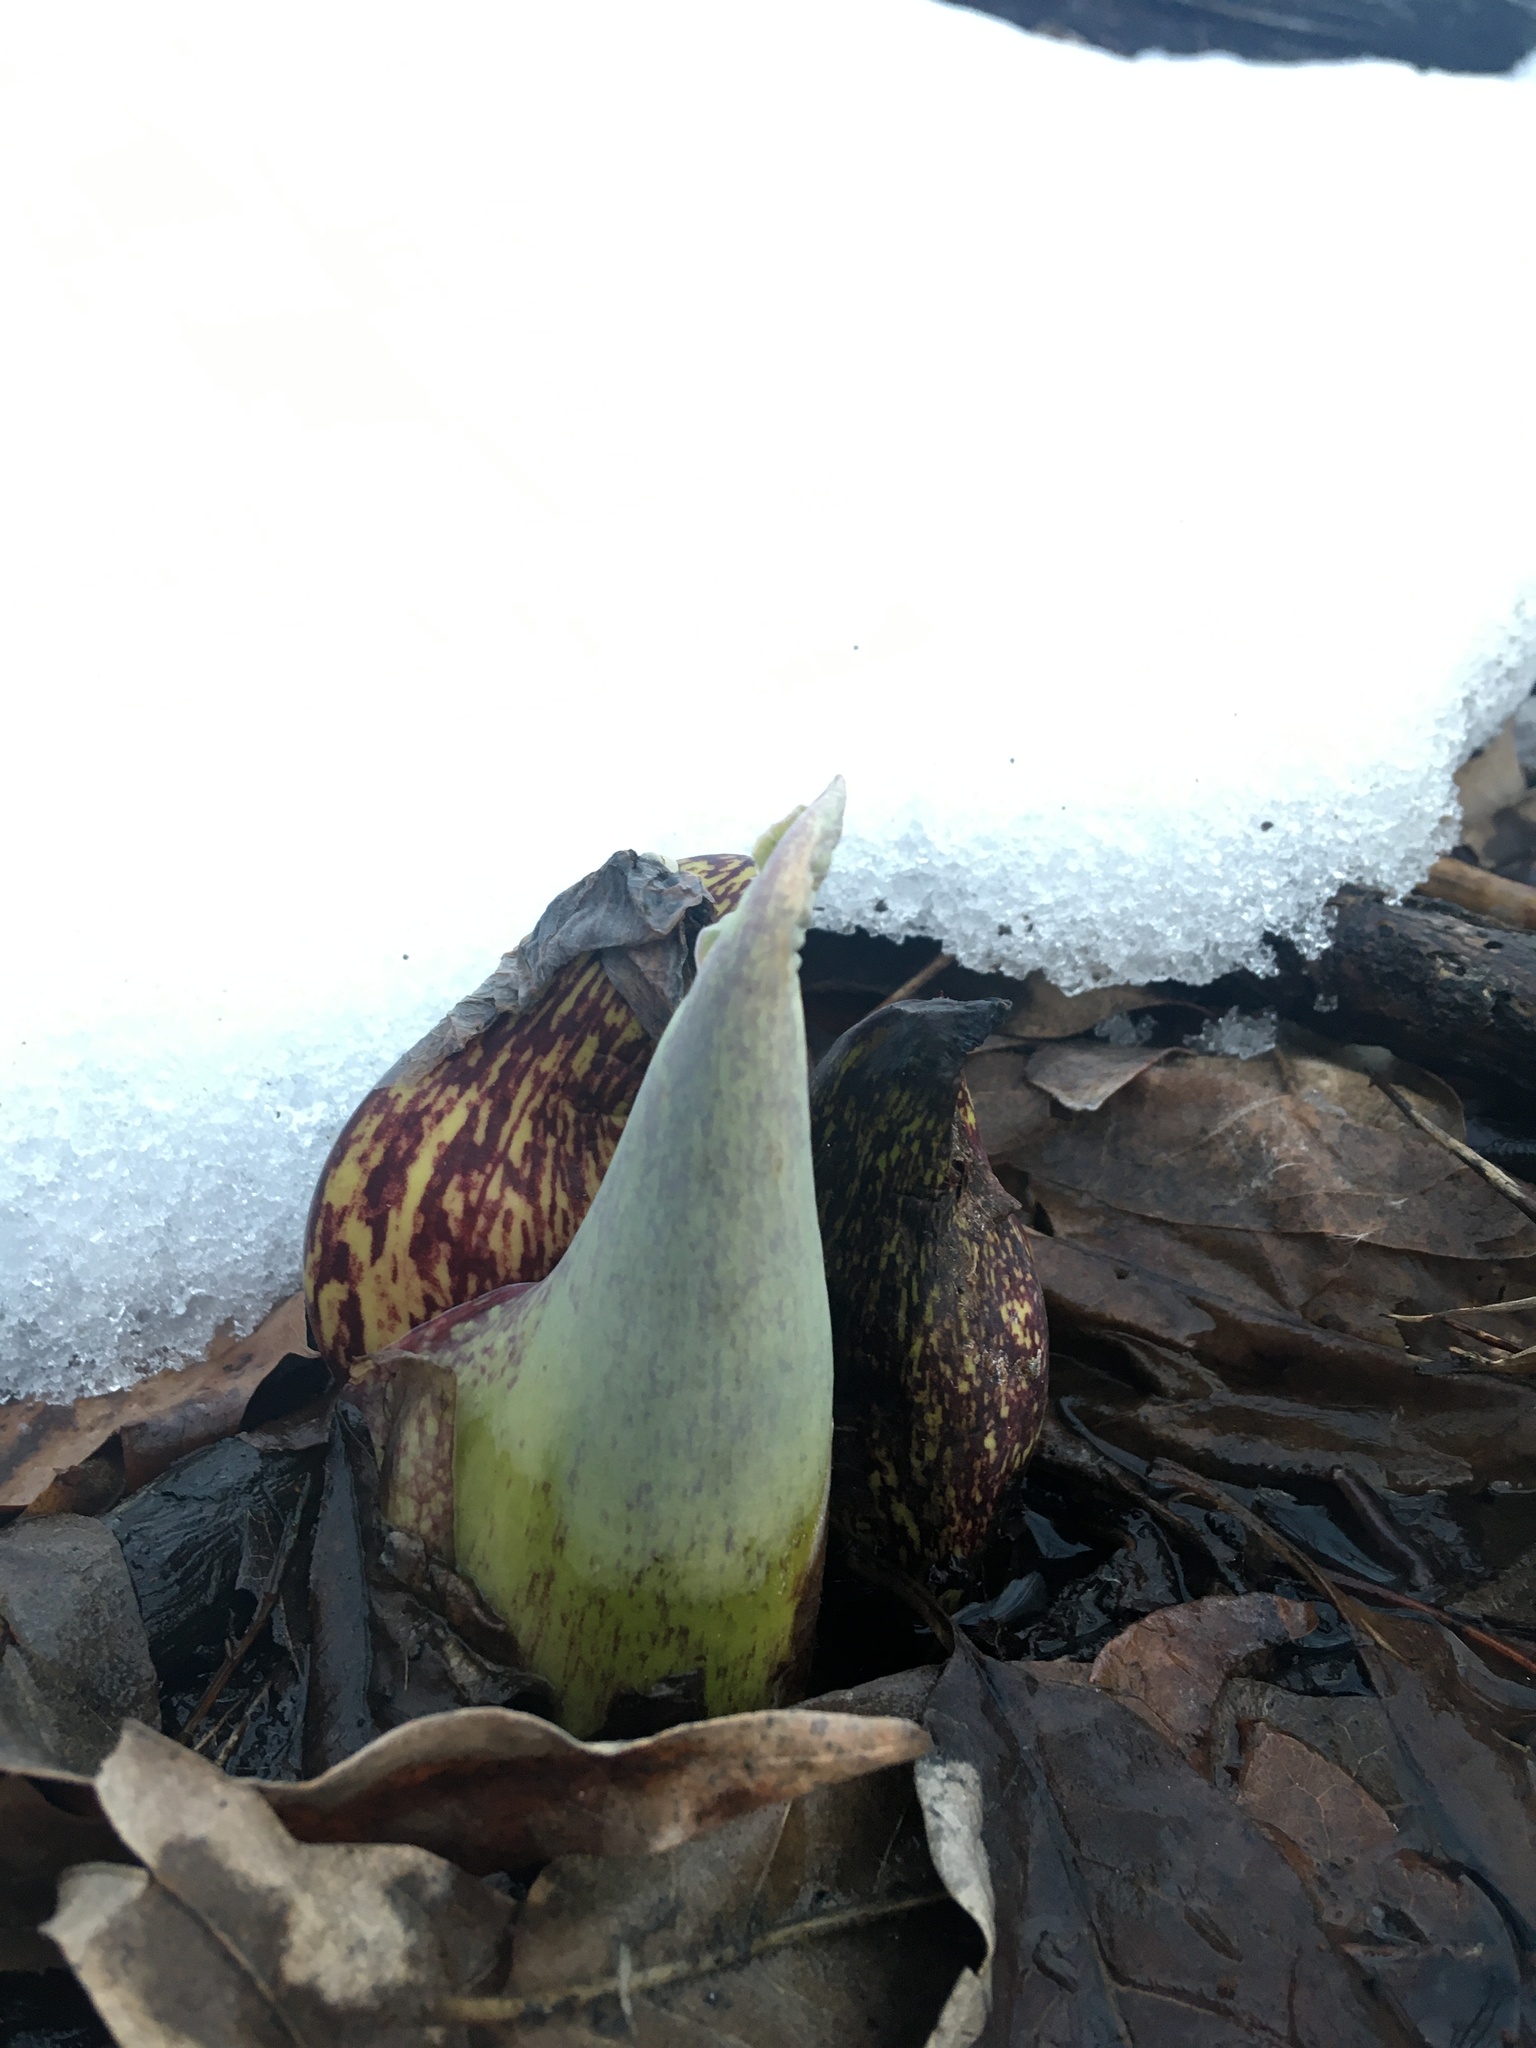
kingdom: Plantae
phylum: Tracheophyta
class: Liliopsida
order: Alismatales
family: Araceae
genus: Symplocarpus
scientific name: Symplocarpus foetidus
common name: Eastern skunk cabbage
